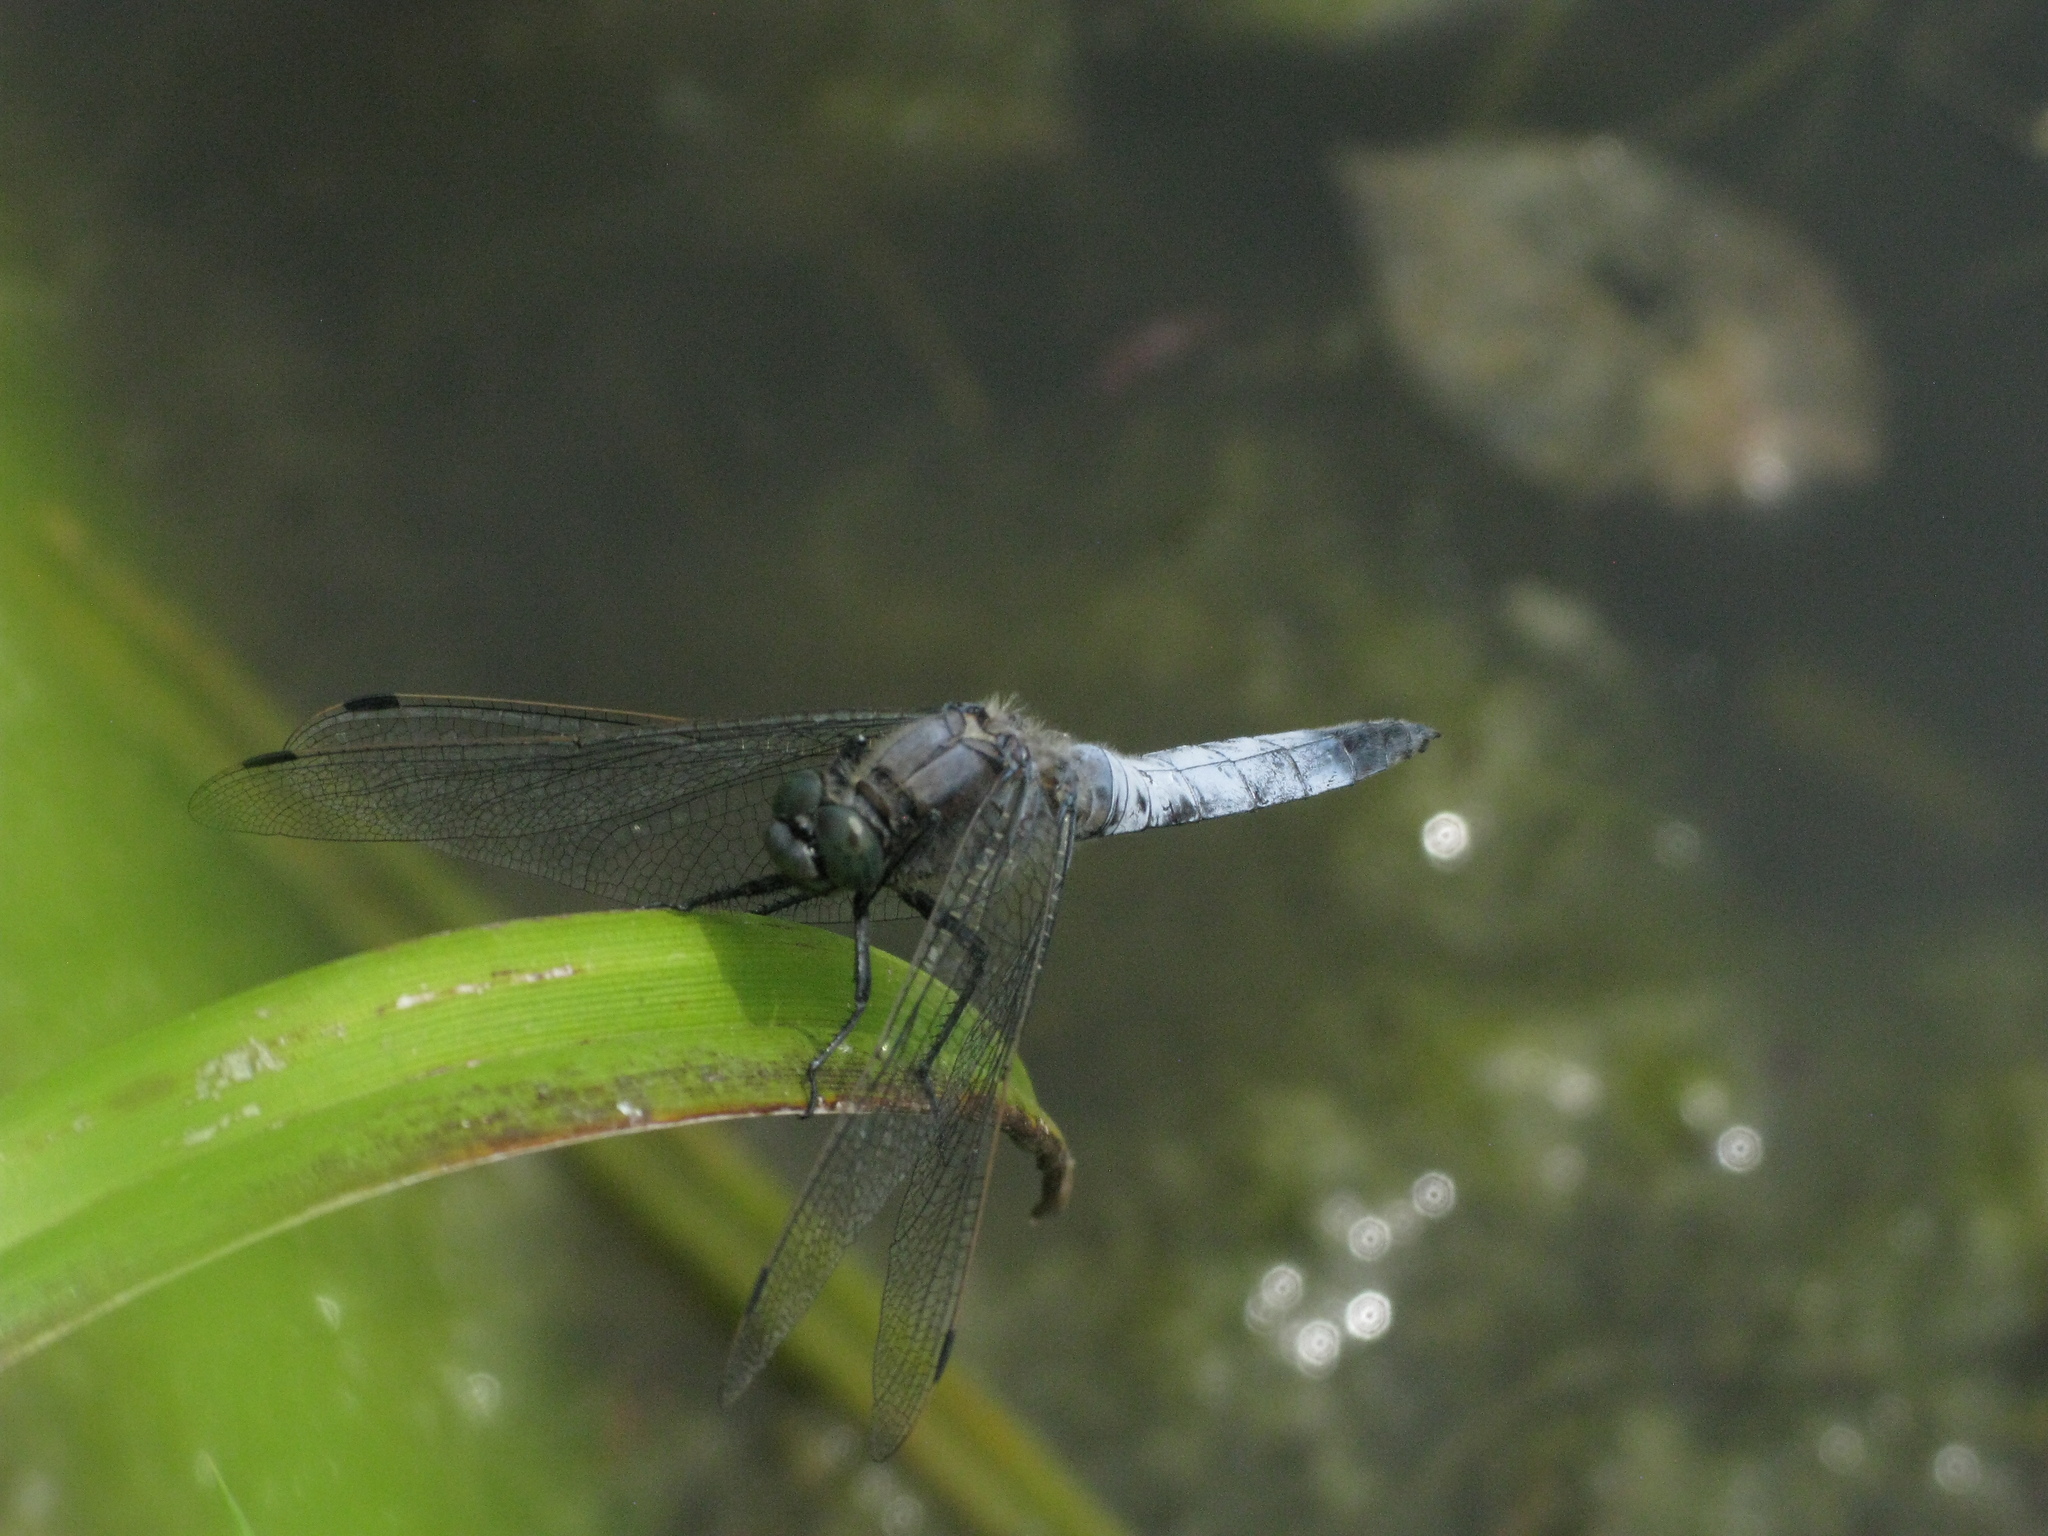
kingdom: Animalia
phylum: Arthropoda
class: Insecta
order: Odonata
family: Libellulidae
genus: Orthetrum
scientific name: Orthetrum cancellatum
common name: Black-tailed skimmer
